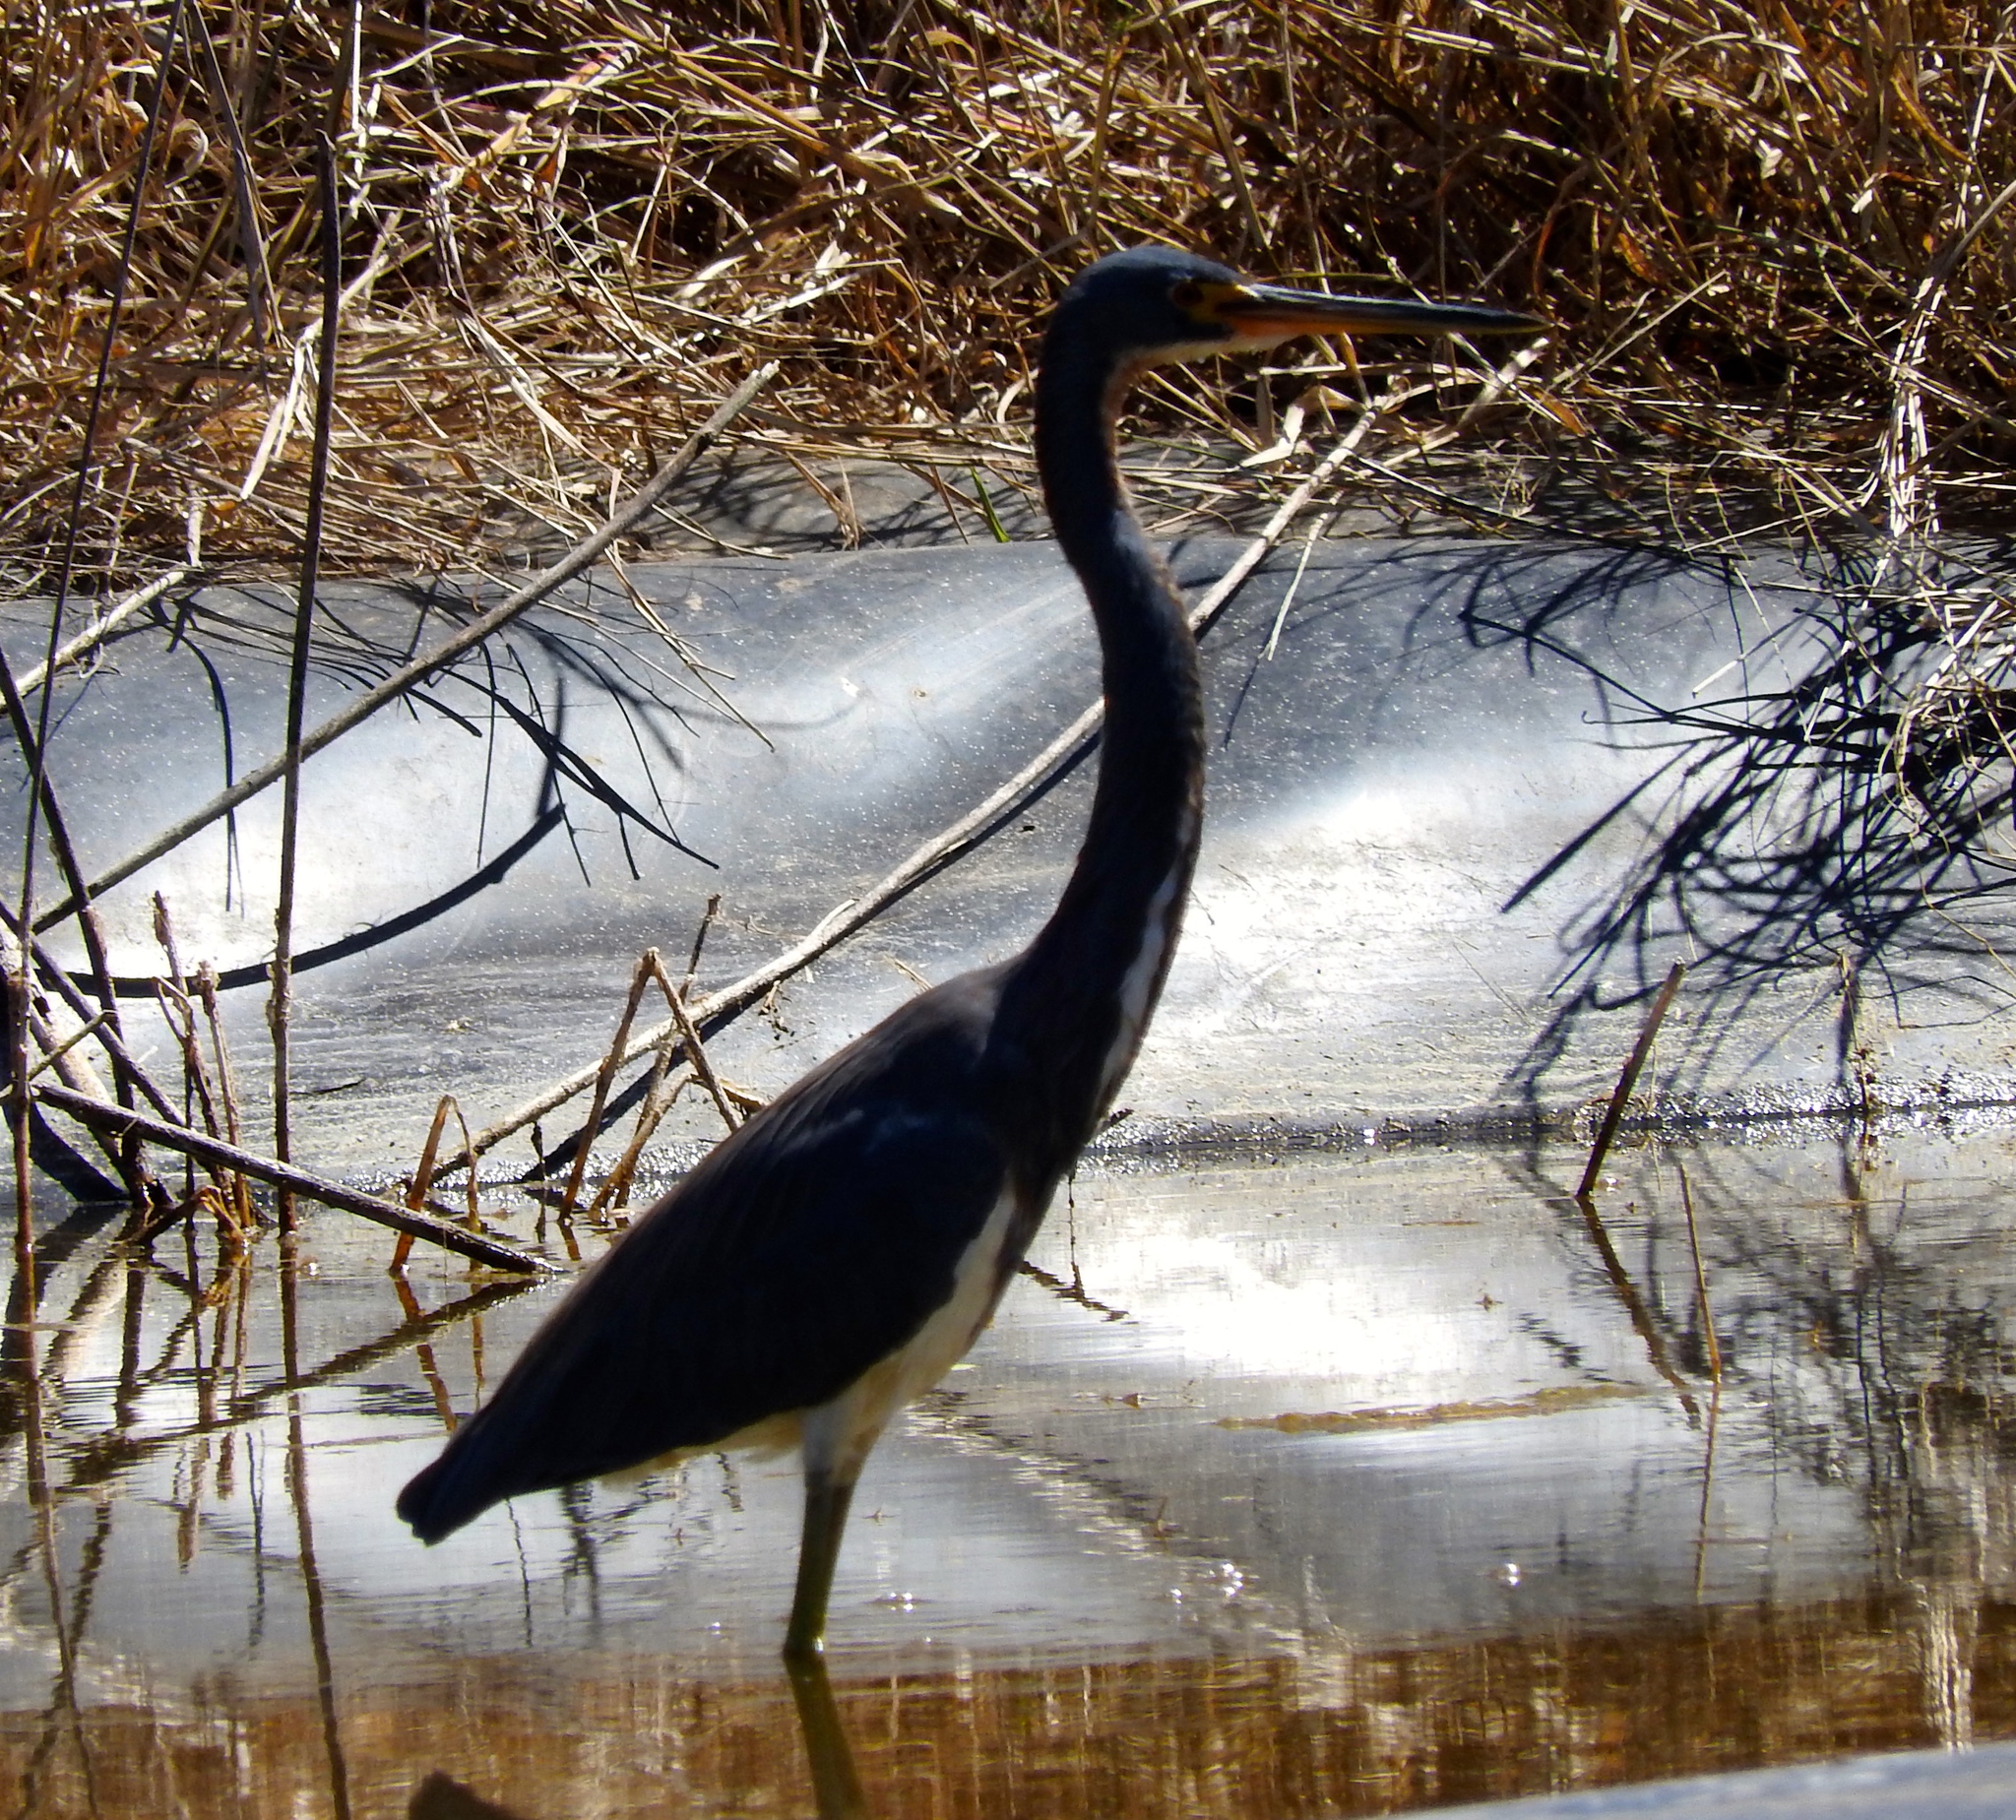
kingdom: Animalia
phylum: Chordata
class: Aves
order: Pelecaniformes
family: Ardeidae
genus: Egretta
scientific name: Egretta tricolor
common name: Tricolored heron
